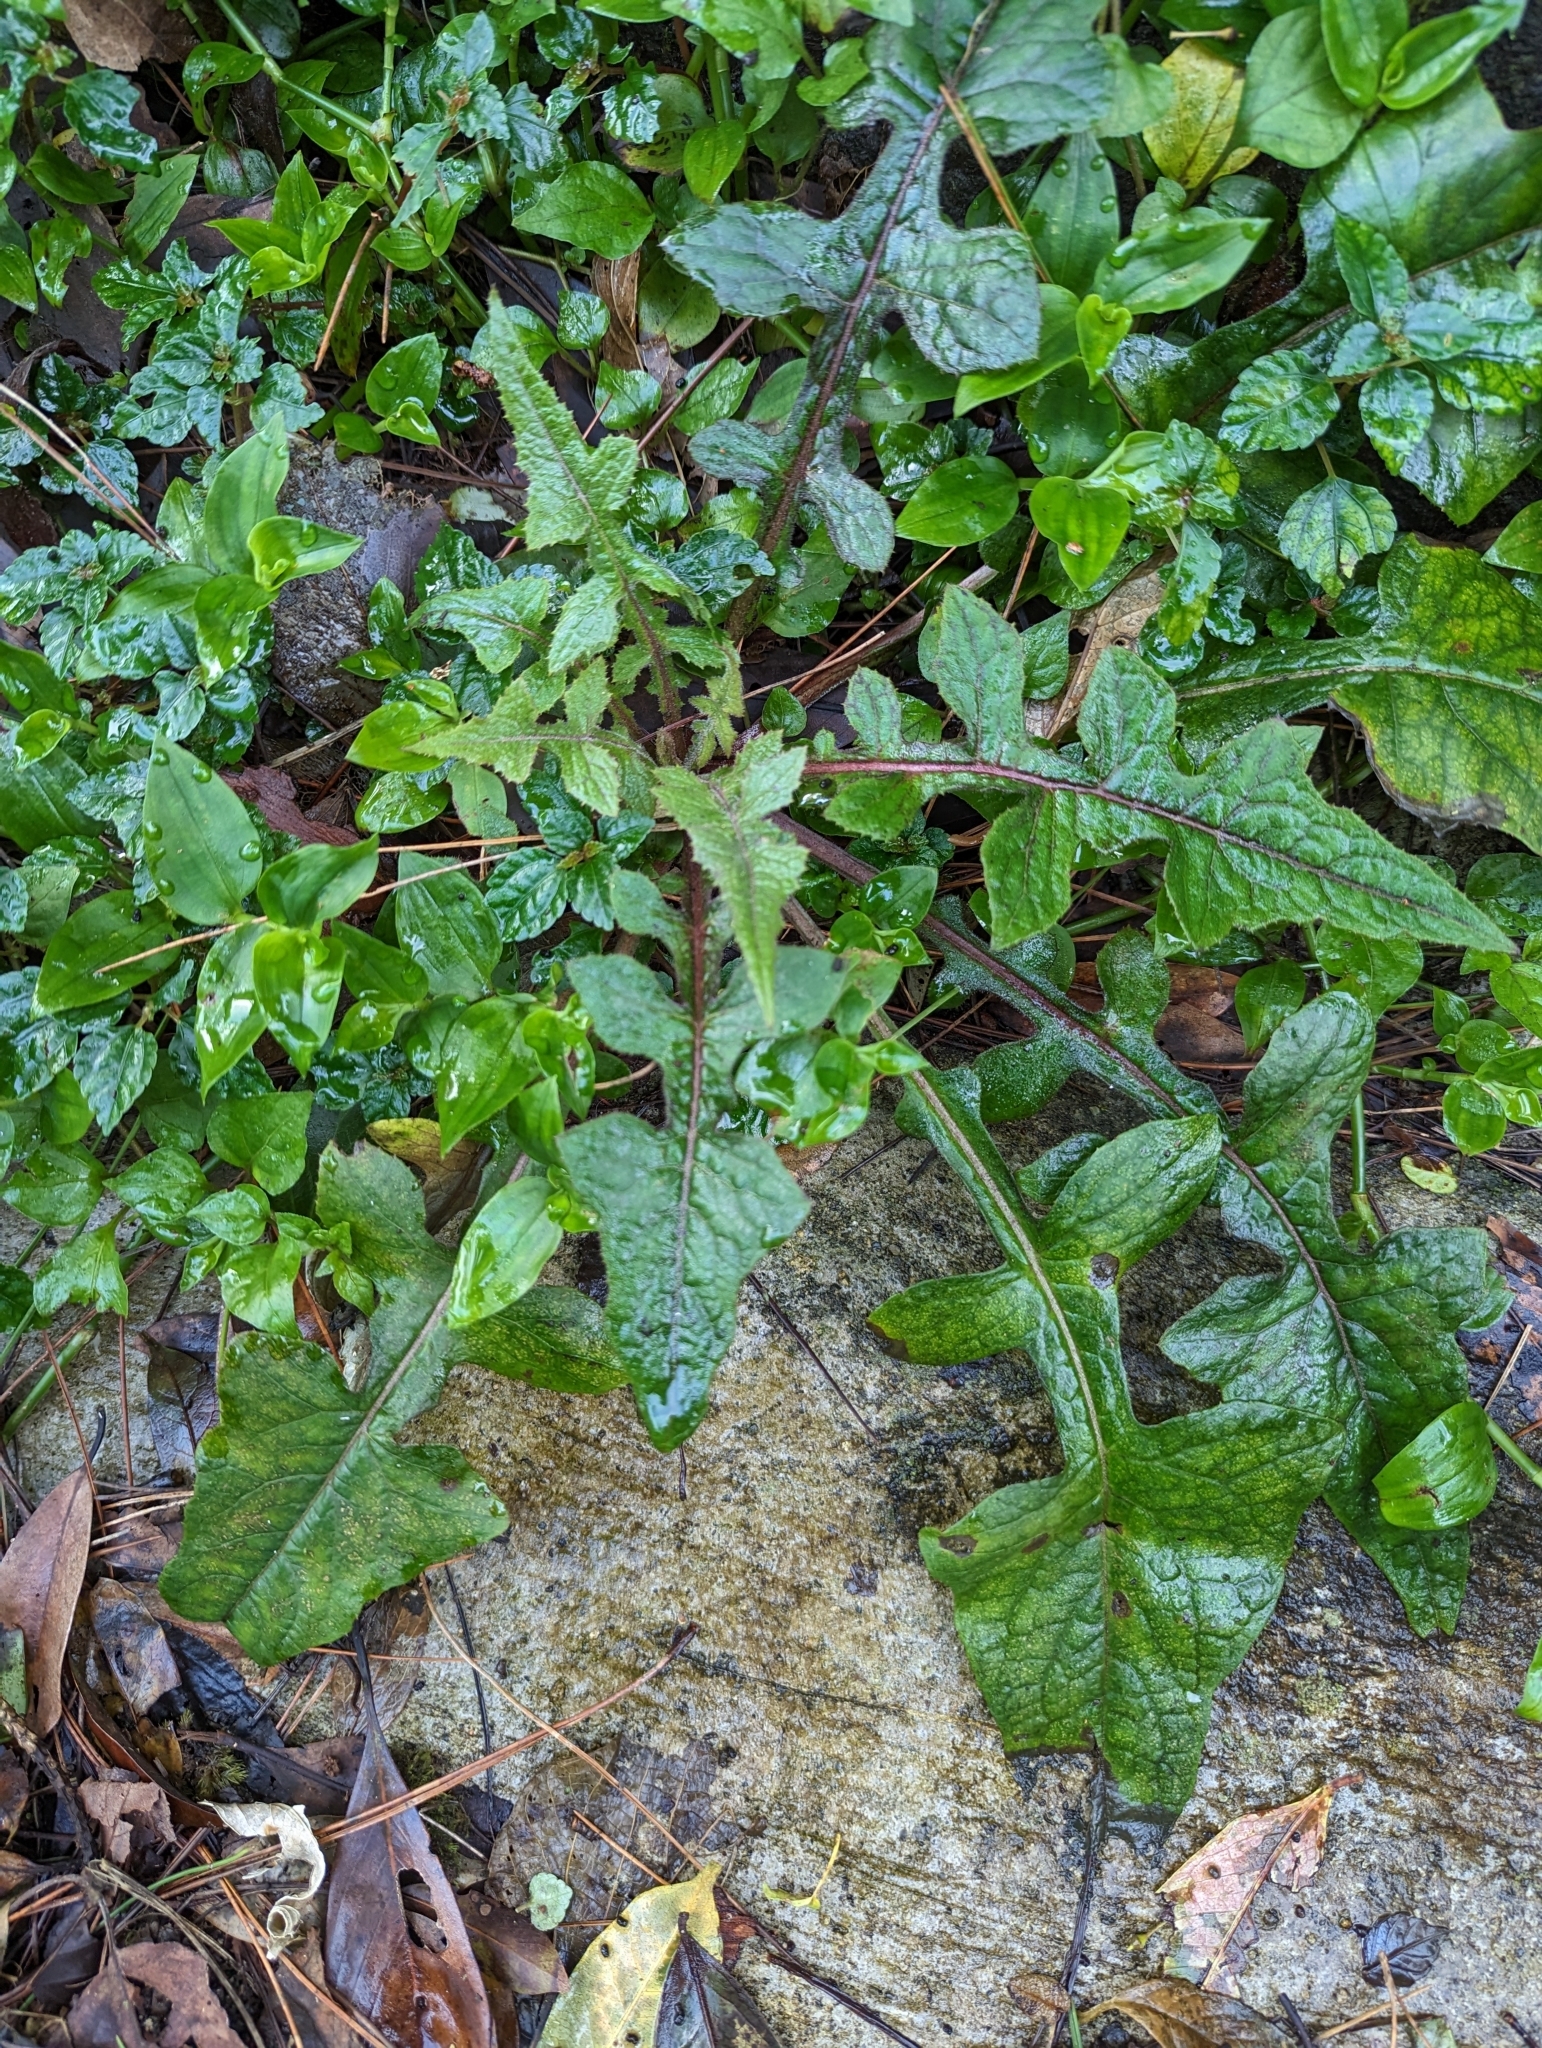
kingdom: Plantae
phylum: Tracheophyta
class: Magnoliopsida
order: Asterales
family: Asteraceae
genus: Paraprenanthes
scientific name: Paraprenanthes sororia
